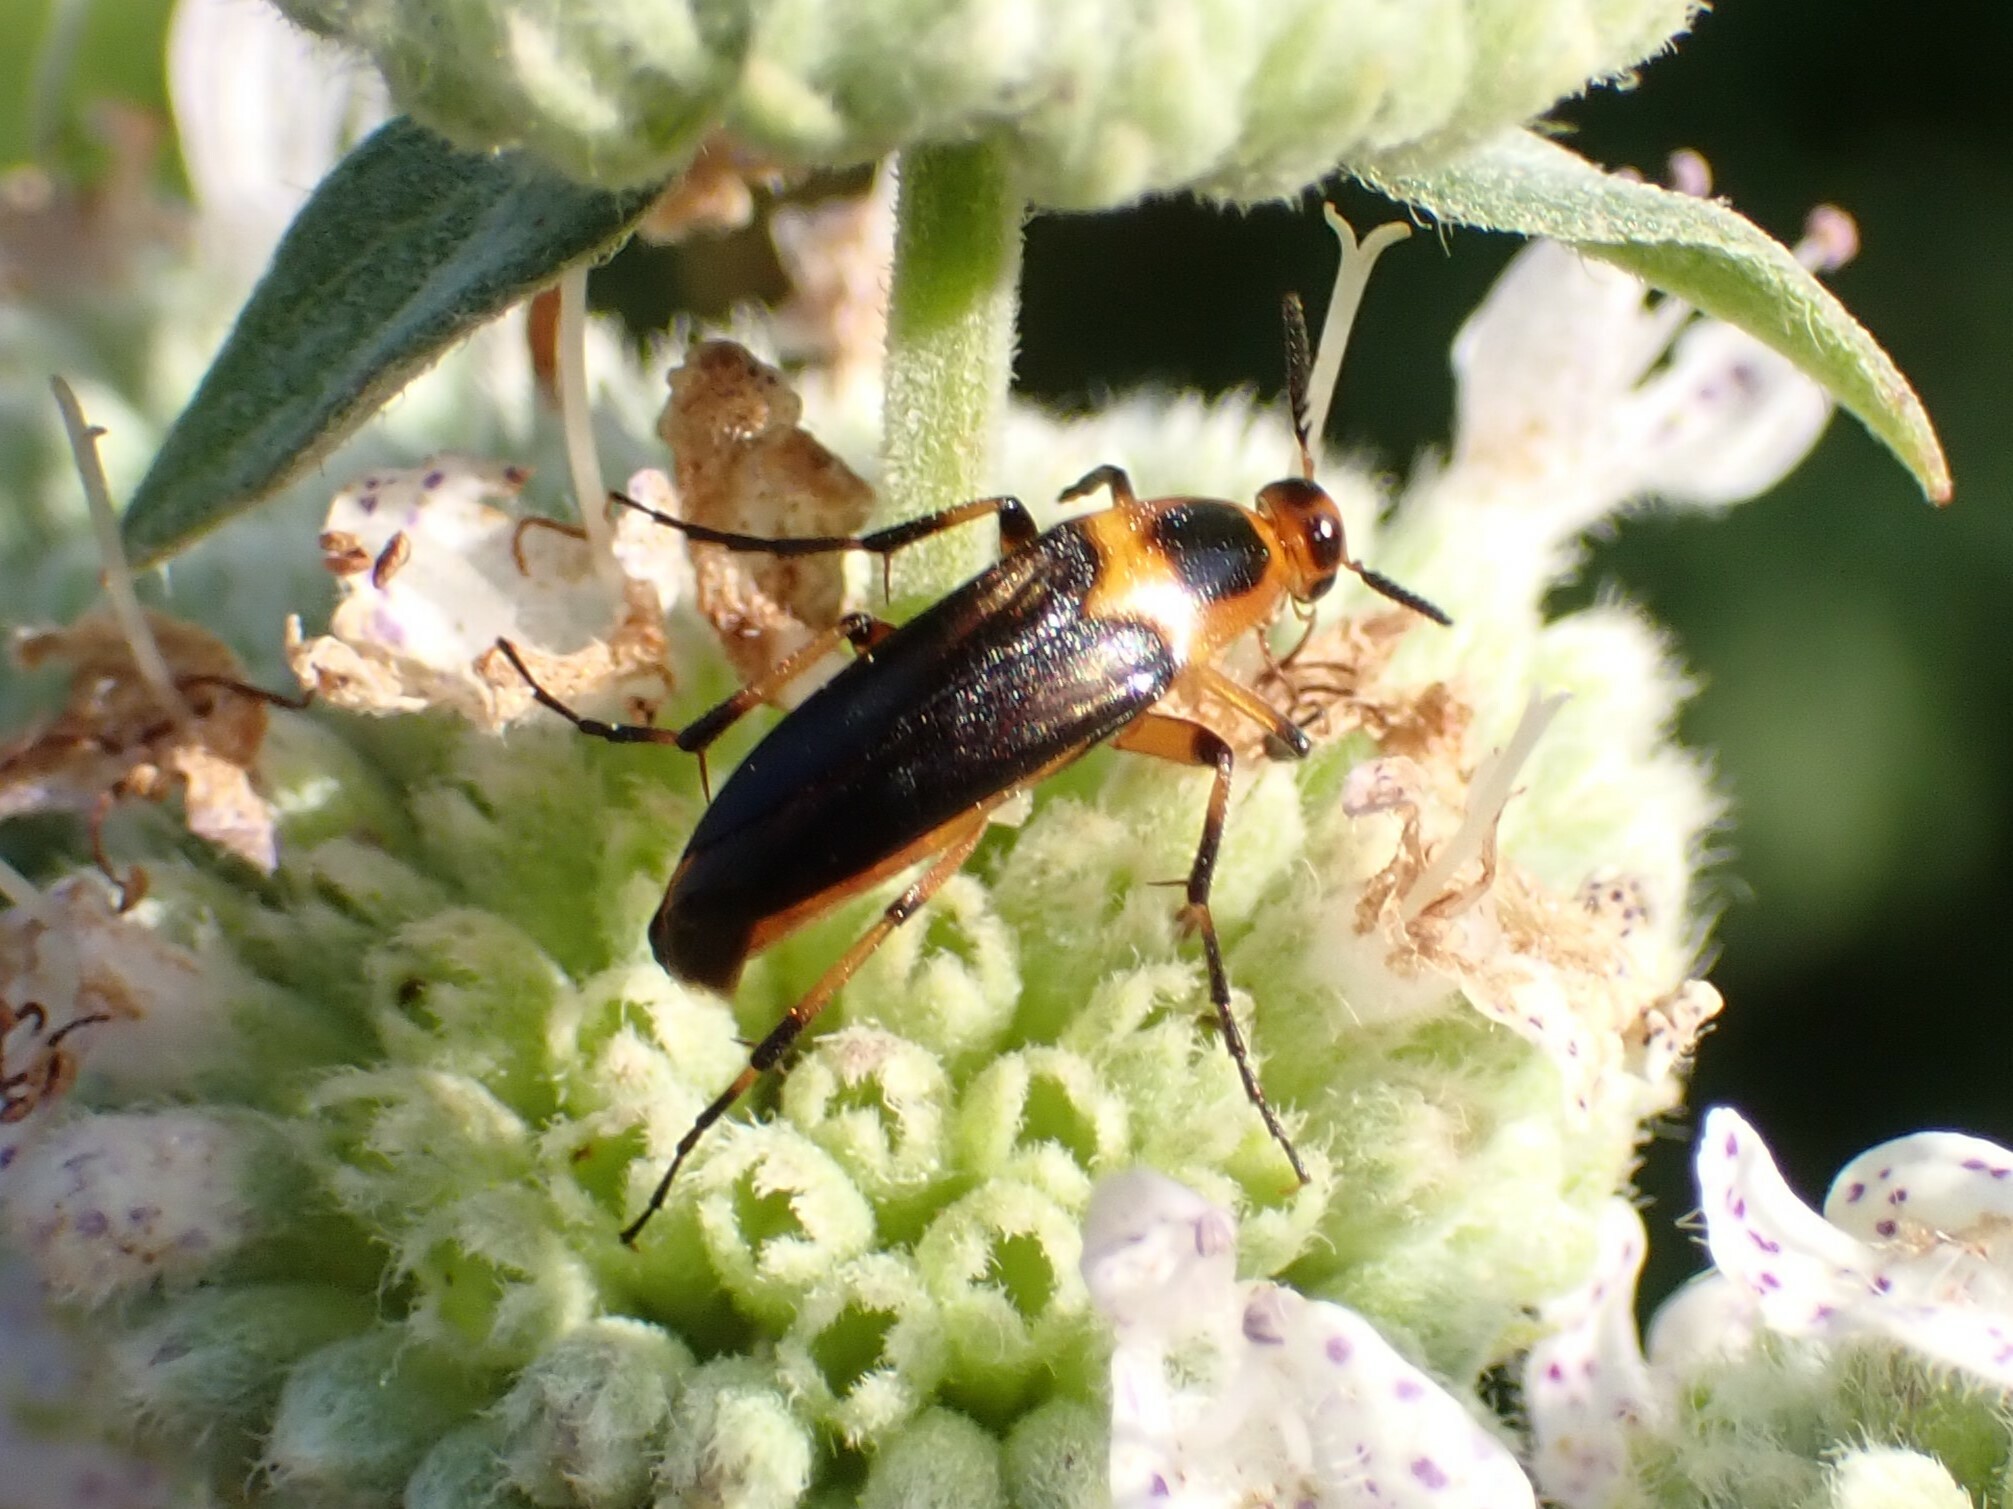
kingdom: Animalia
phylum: Arthropoda
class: Insecta
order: Coleoptera
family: Ripiphoridae
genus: Macrosiagon
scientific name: Macrosiagon limbatum
